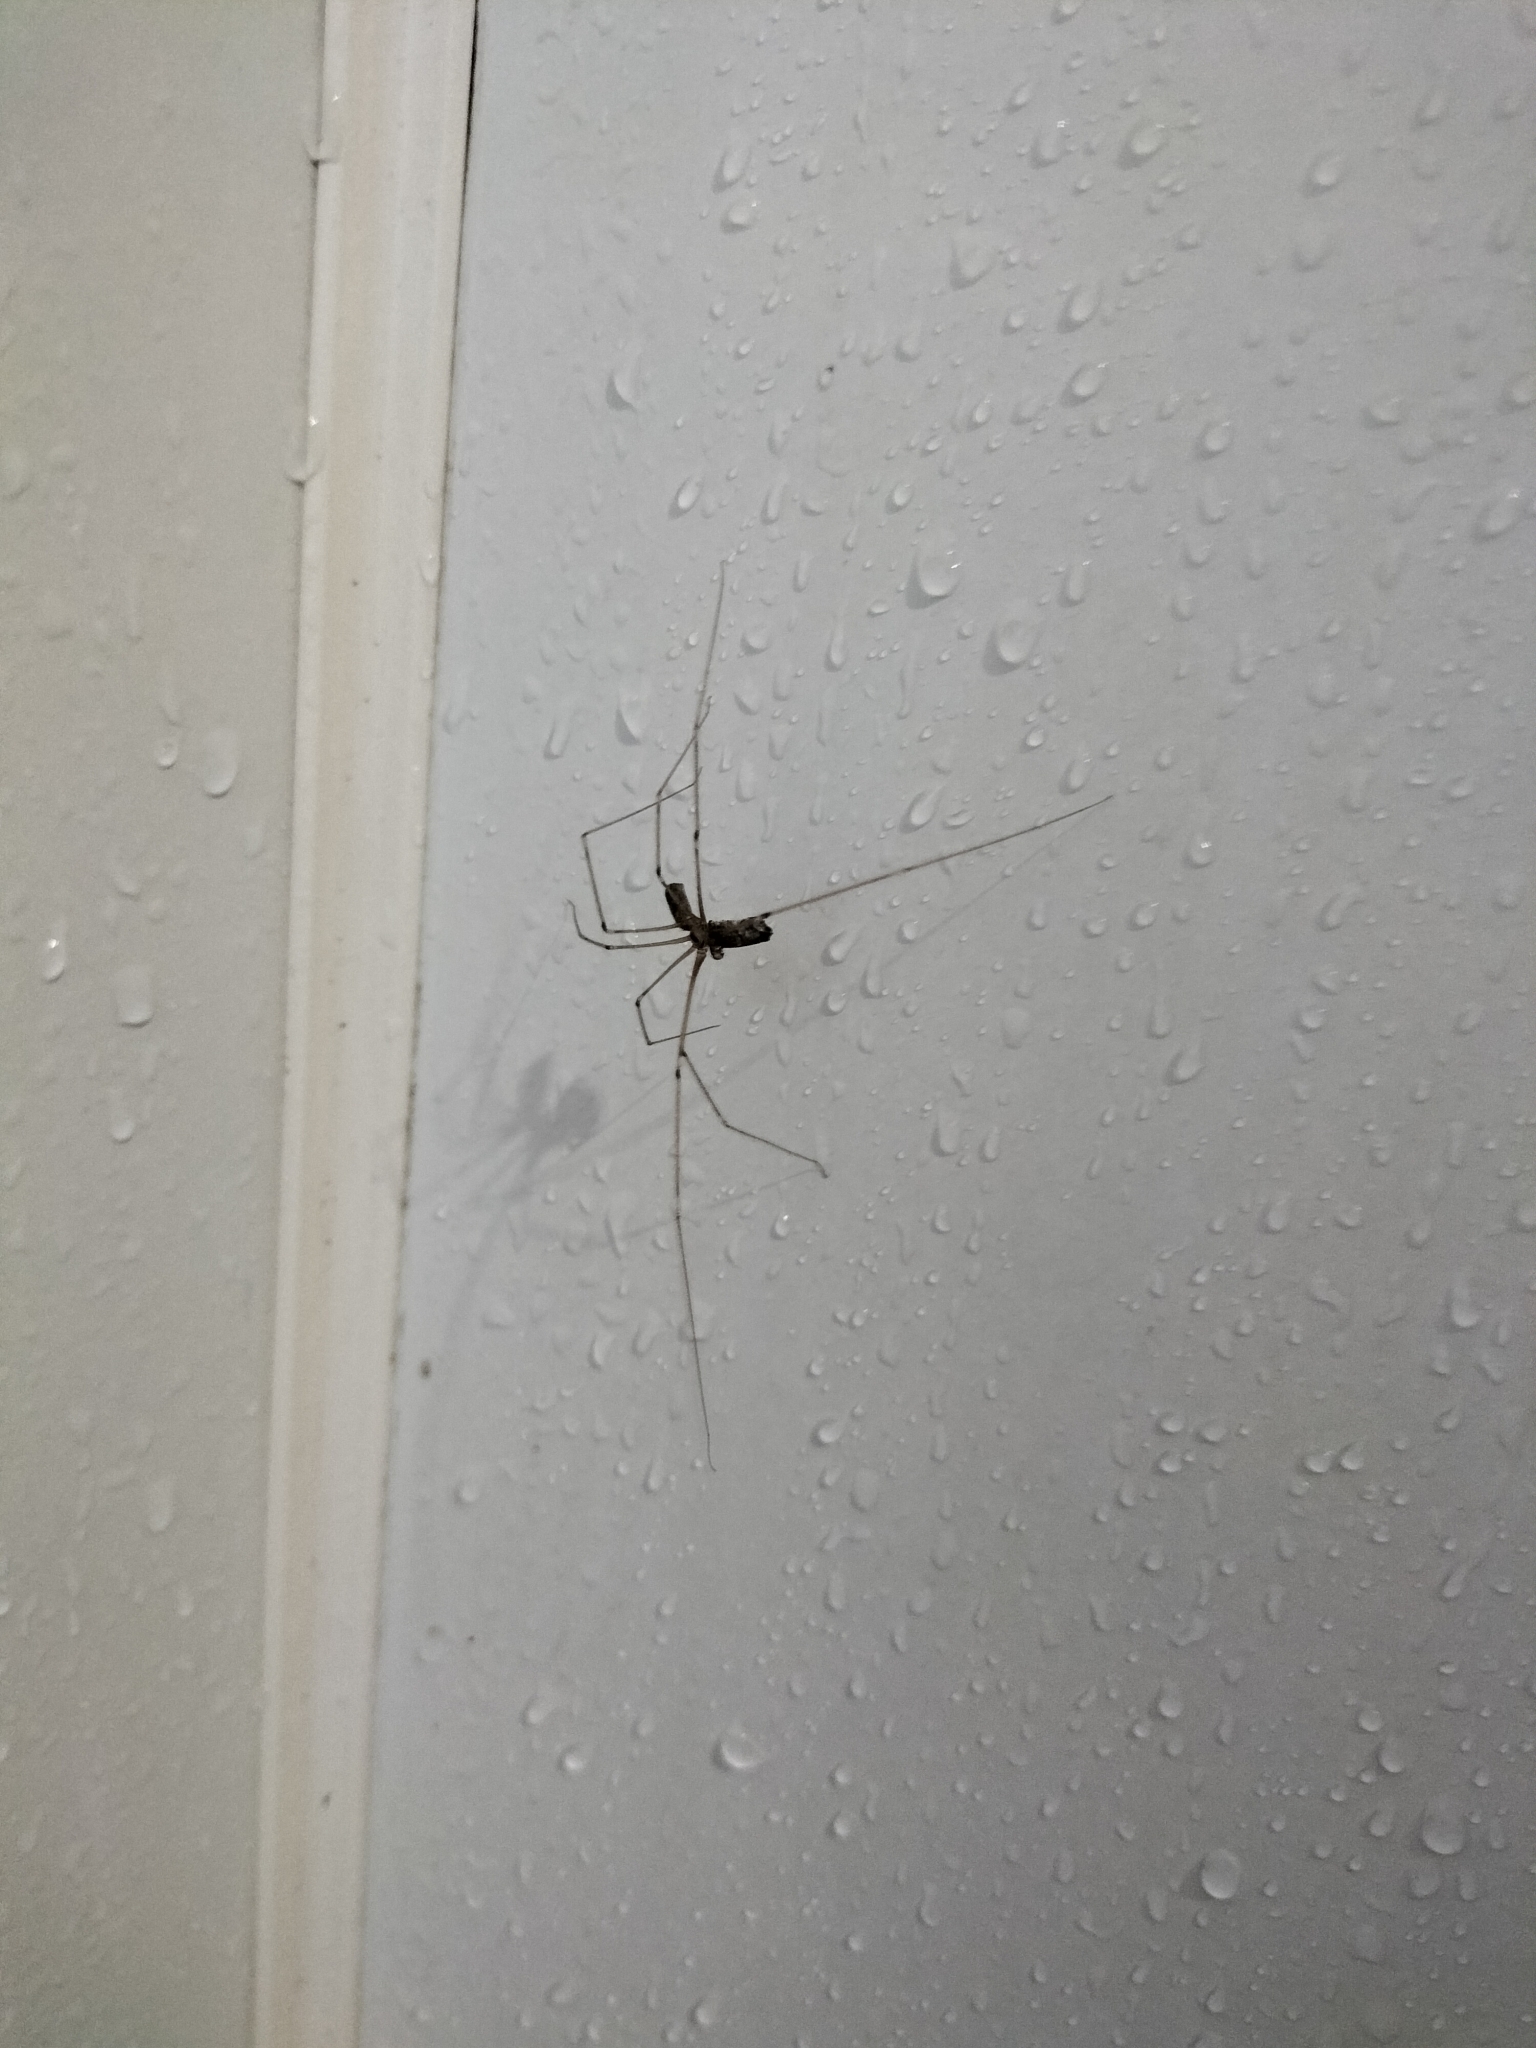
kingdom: Animalia
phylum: Arthropoda
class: Arachnida
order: Araneae
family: Pholcidae
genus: Pholcus
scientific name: Pholcus phalangioides
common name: Longbodied cellar spider
